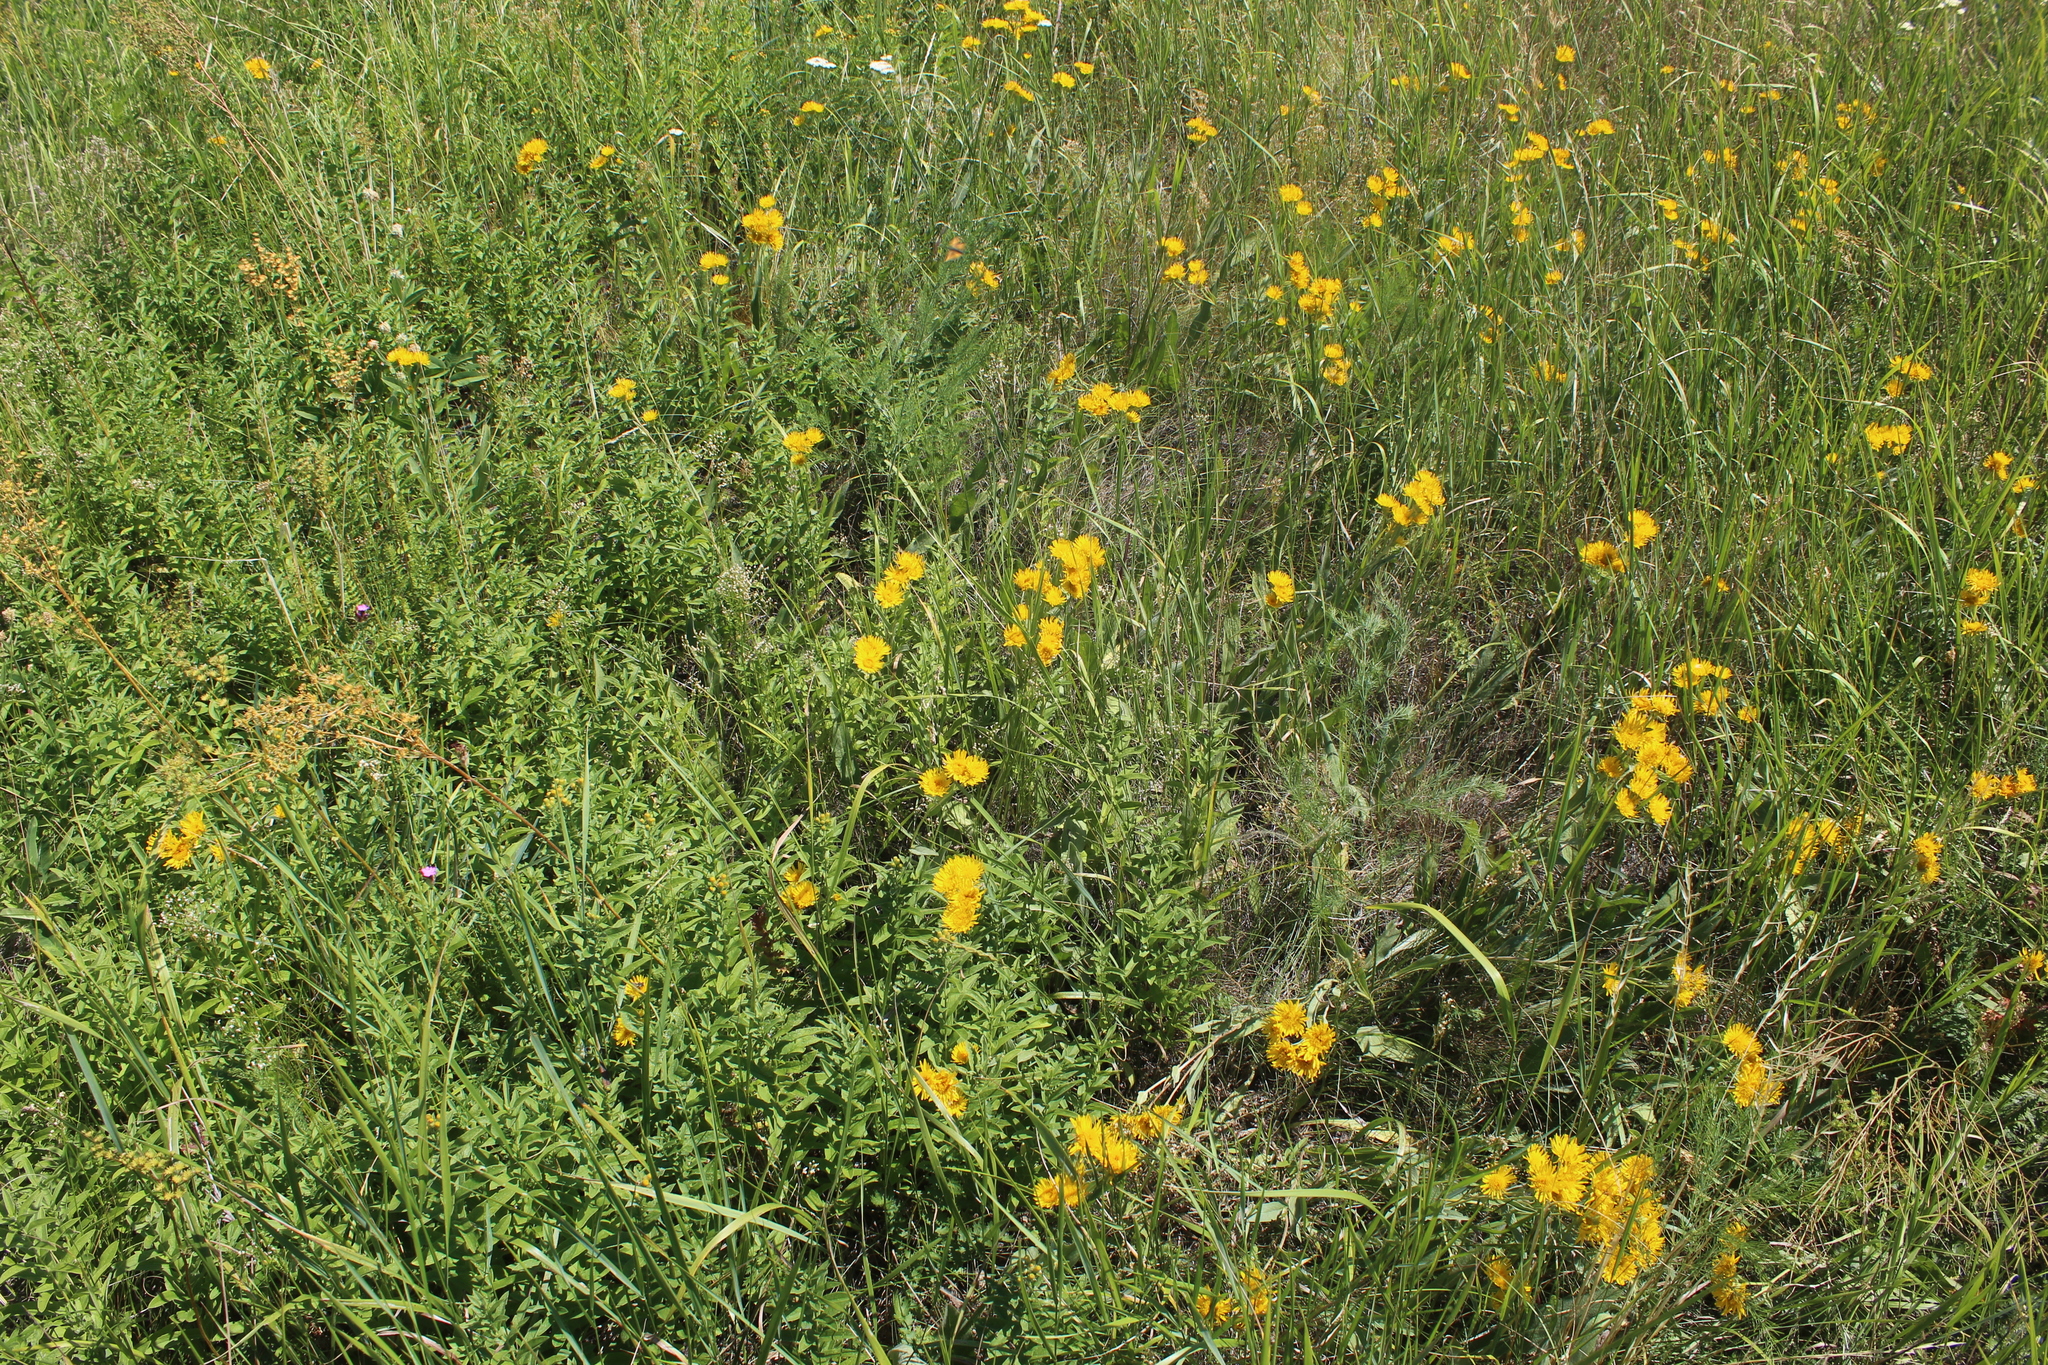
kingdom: Plantae
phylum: Tracheophyta
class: Magnoliopsida
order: Asterales
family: Asteraceae
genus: Pentanema
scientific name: Pentanema oculus-christi
